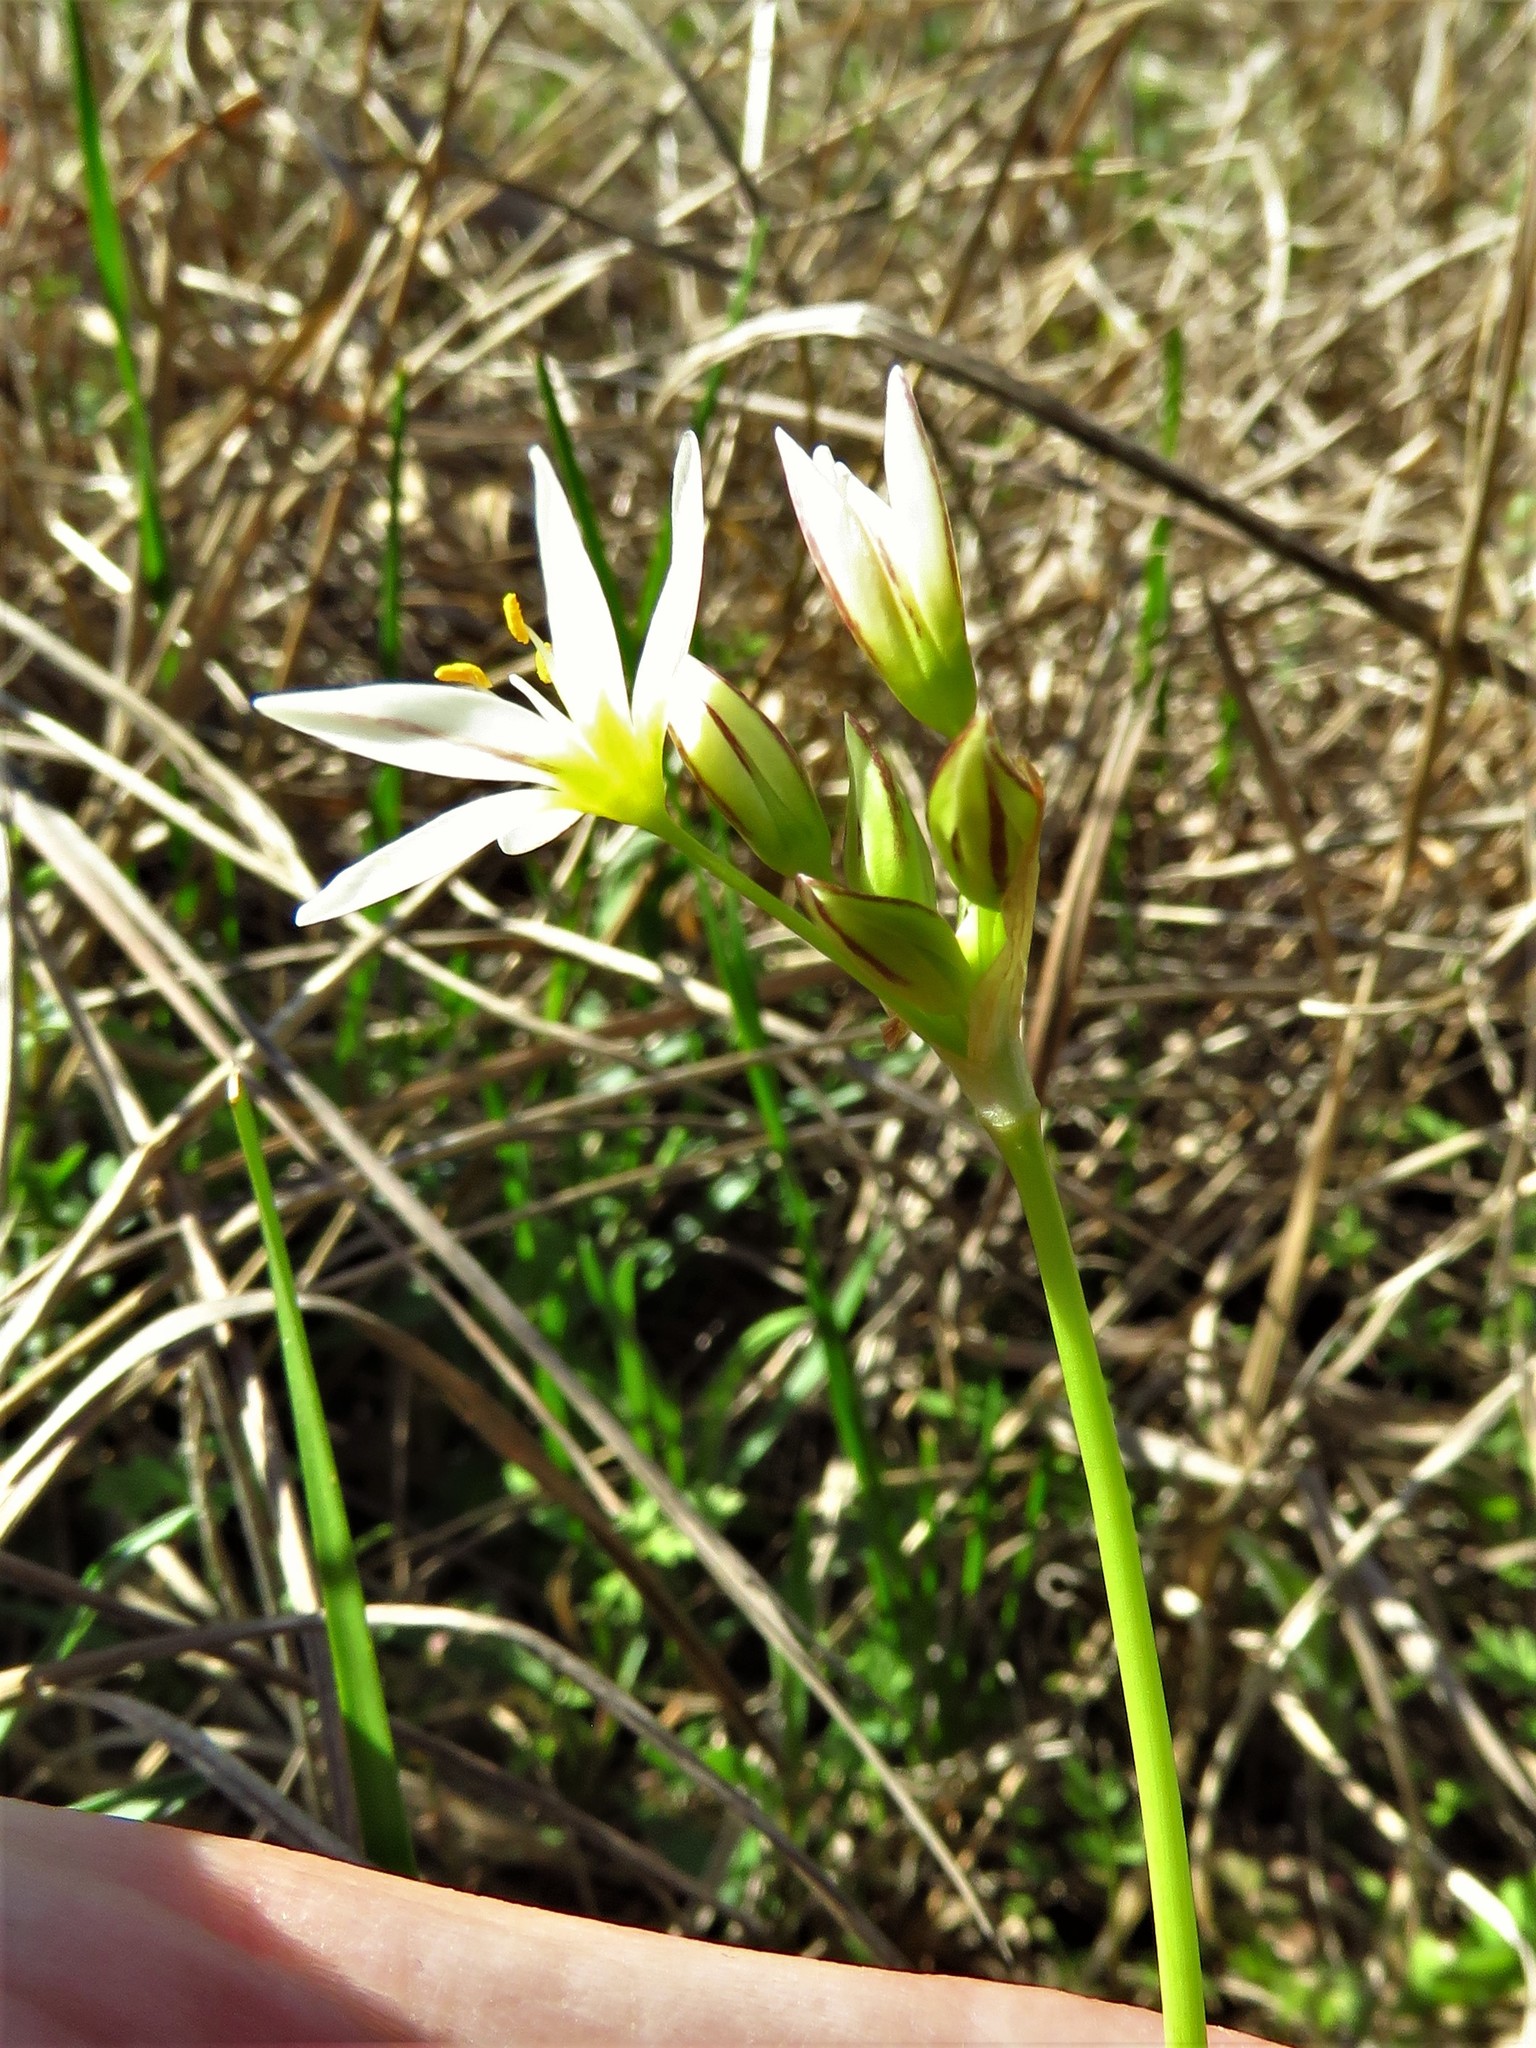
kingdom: Plantae
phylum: Tracheophyta
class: Liliopsida
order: Asparagales
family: Amaryllidaceae
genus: Nothoscordum
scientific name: Nothoscordum bivalve
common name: Crow-poison
